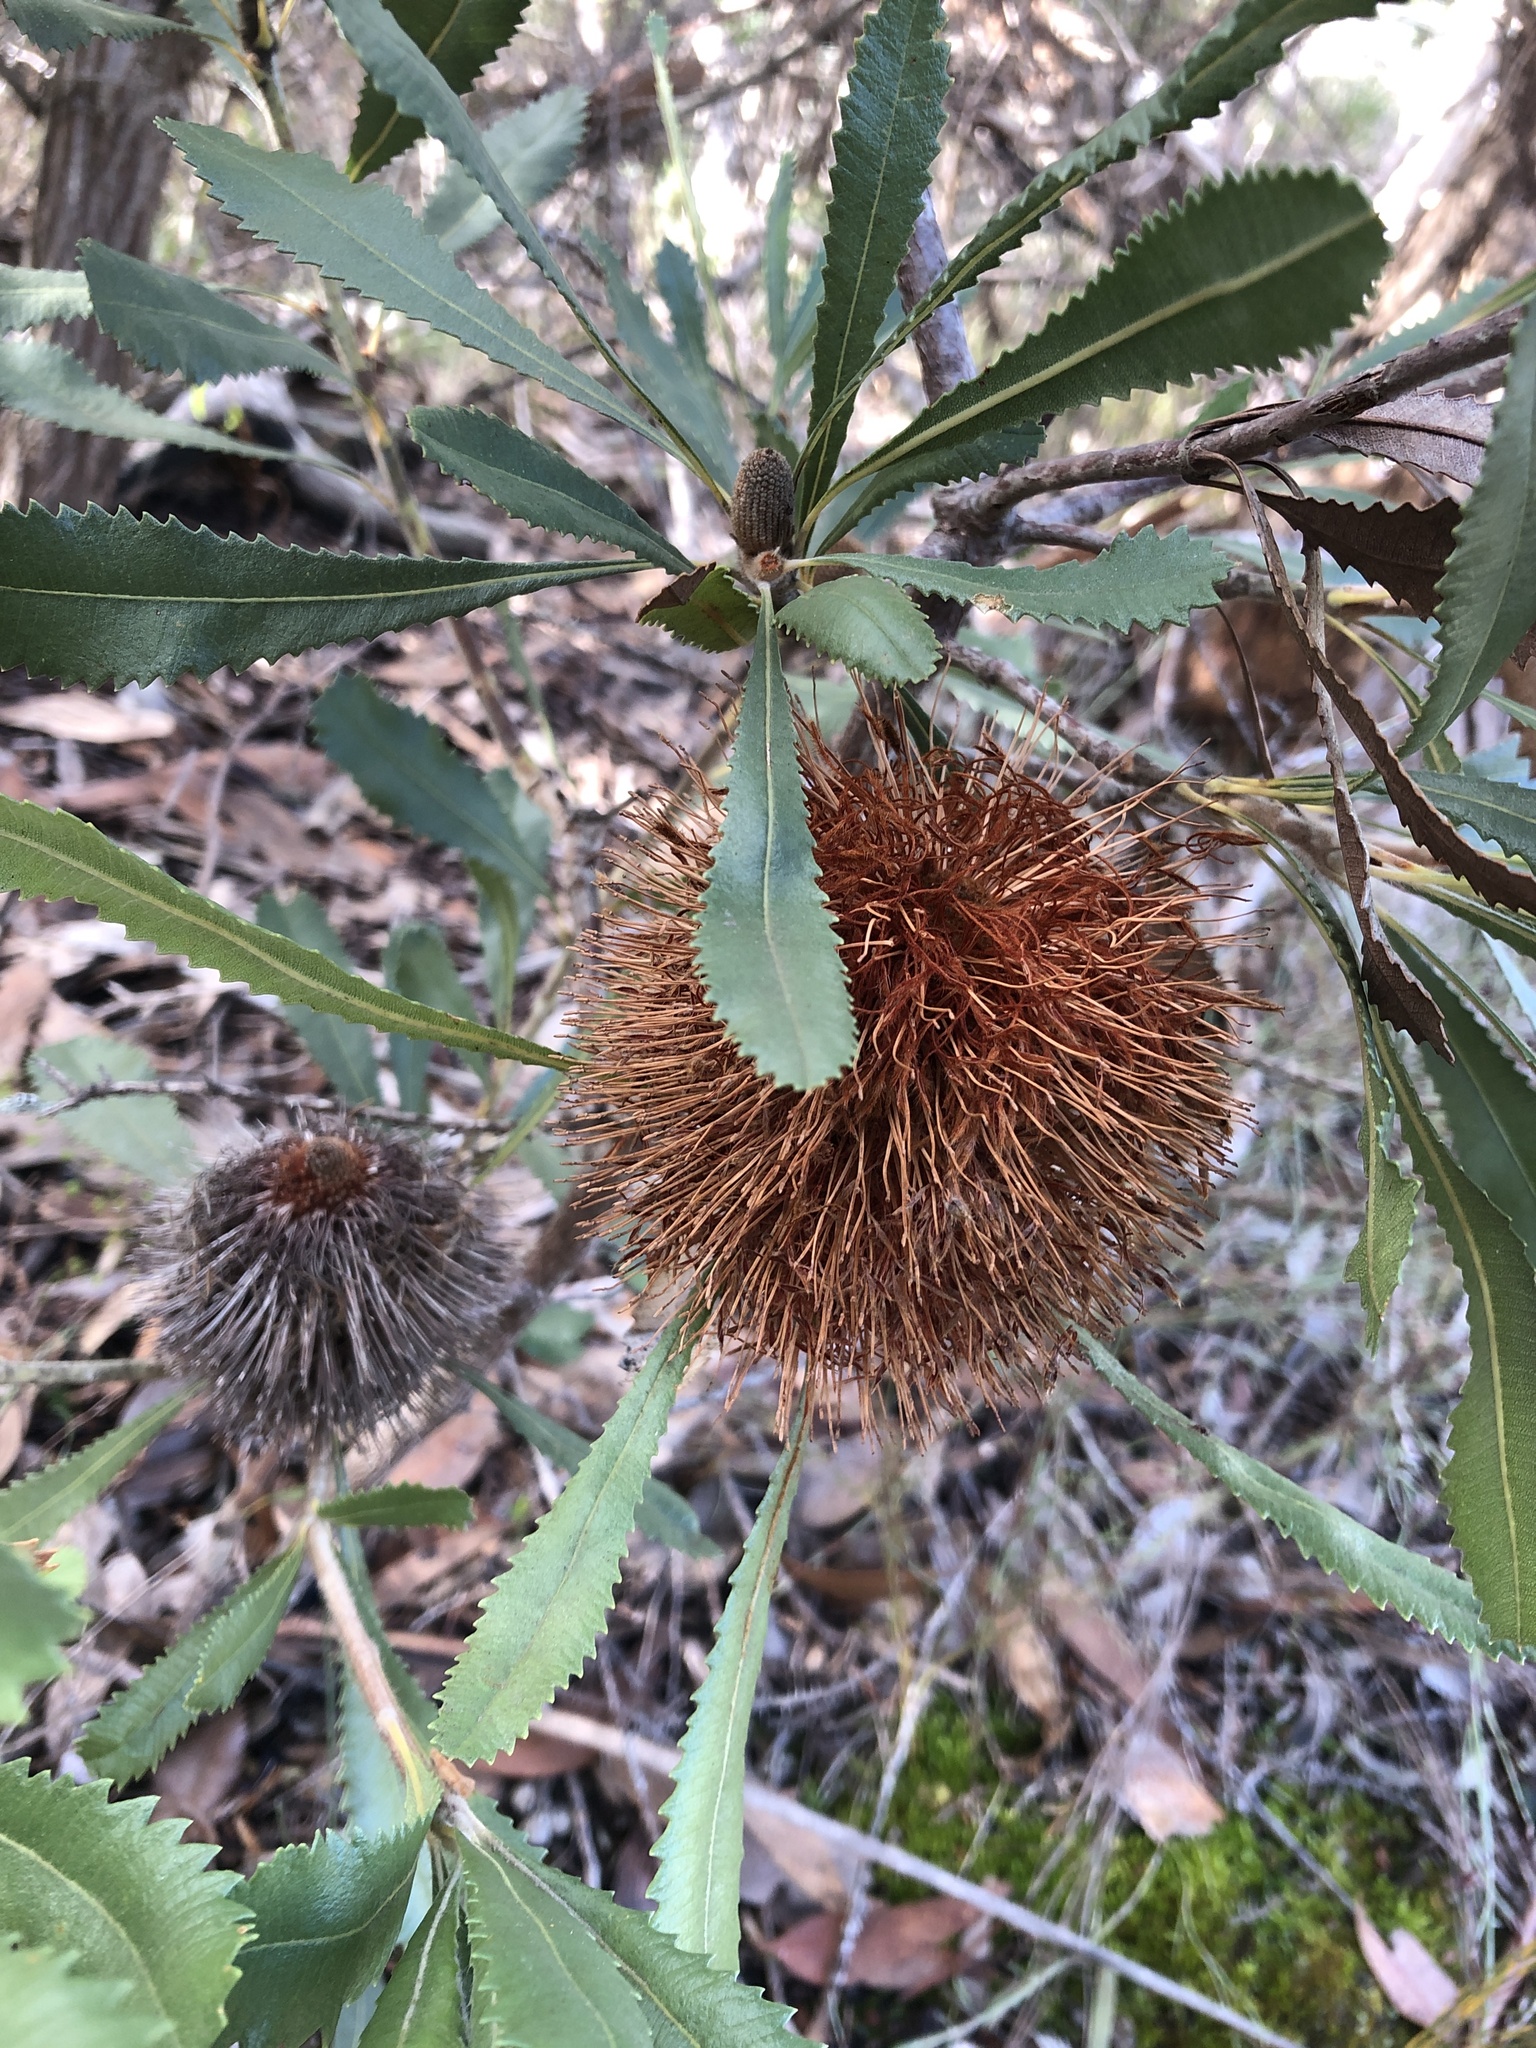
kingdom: Plantae
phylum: Tracheophyta
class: Magnoliopsida
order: Proteales
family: Proteaceae
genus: Banksia
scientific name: Banksia ornata
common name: Desert banksia
